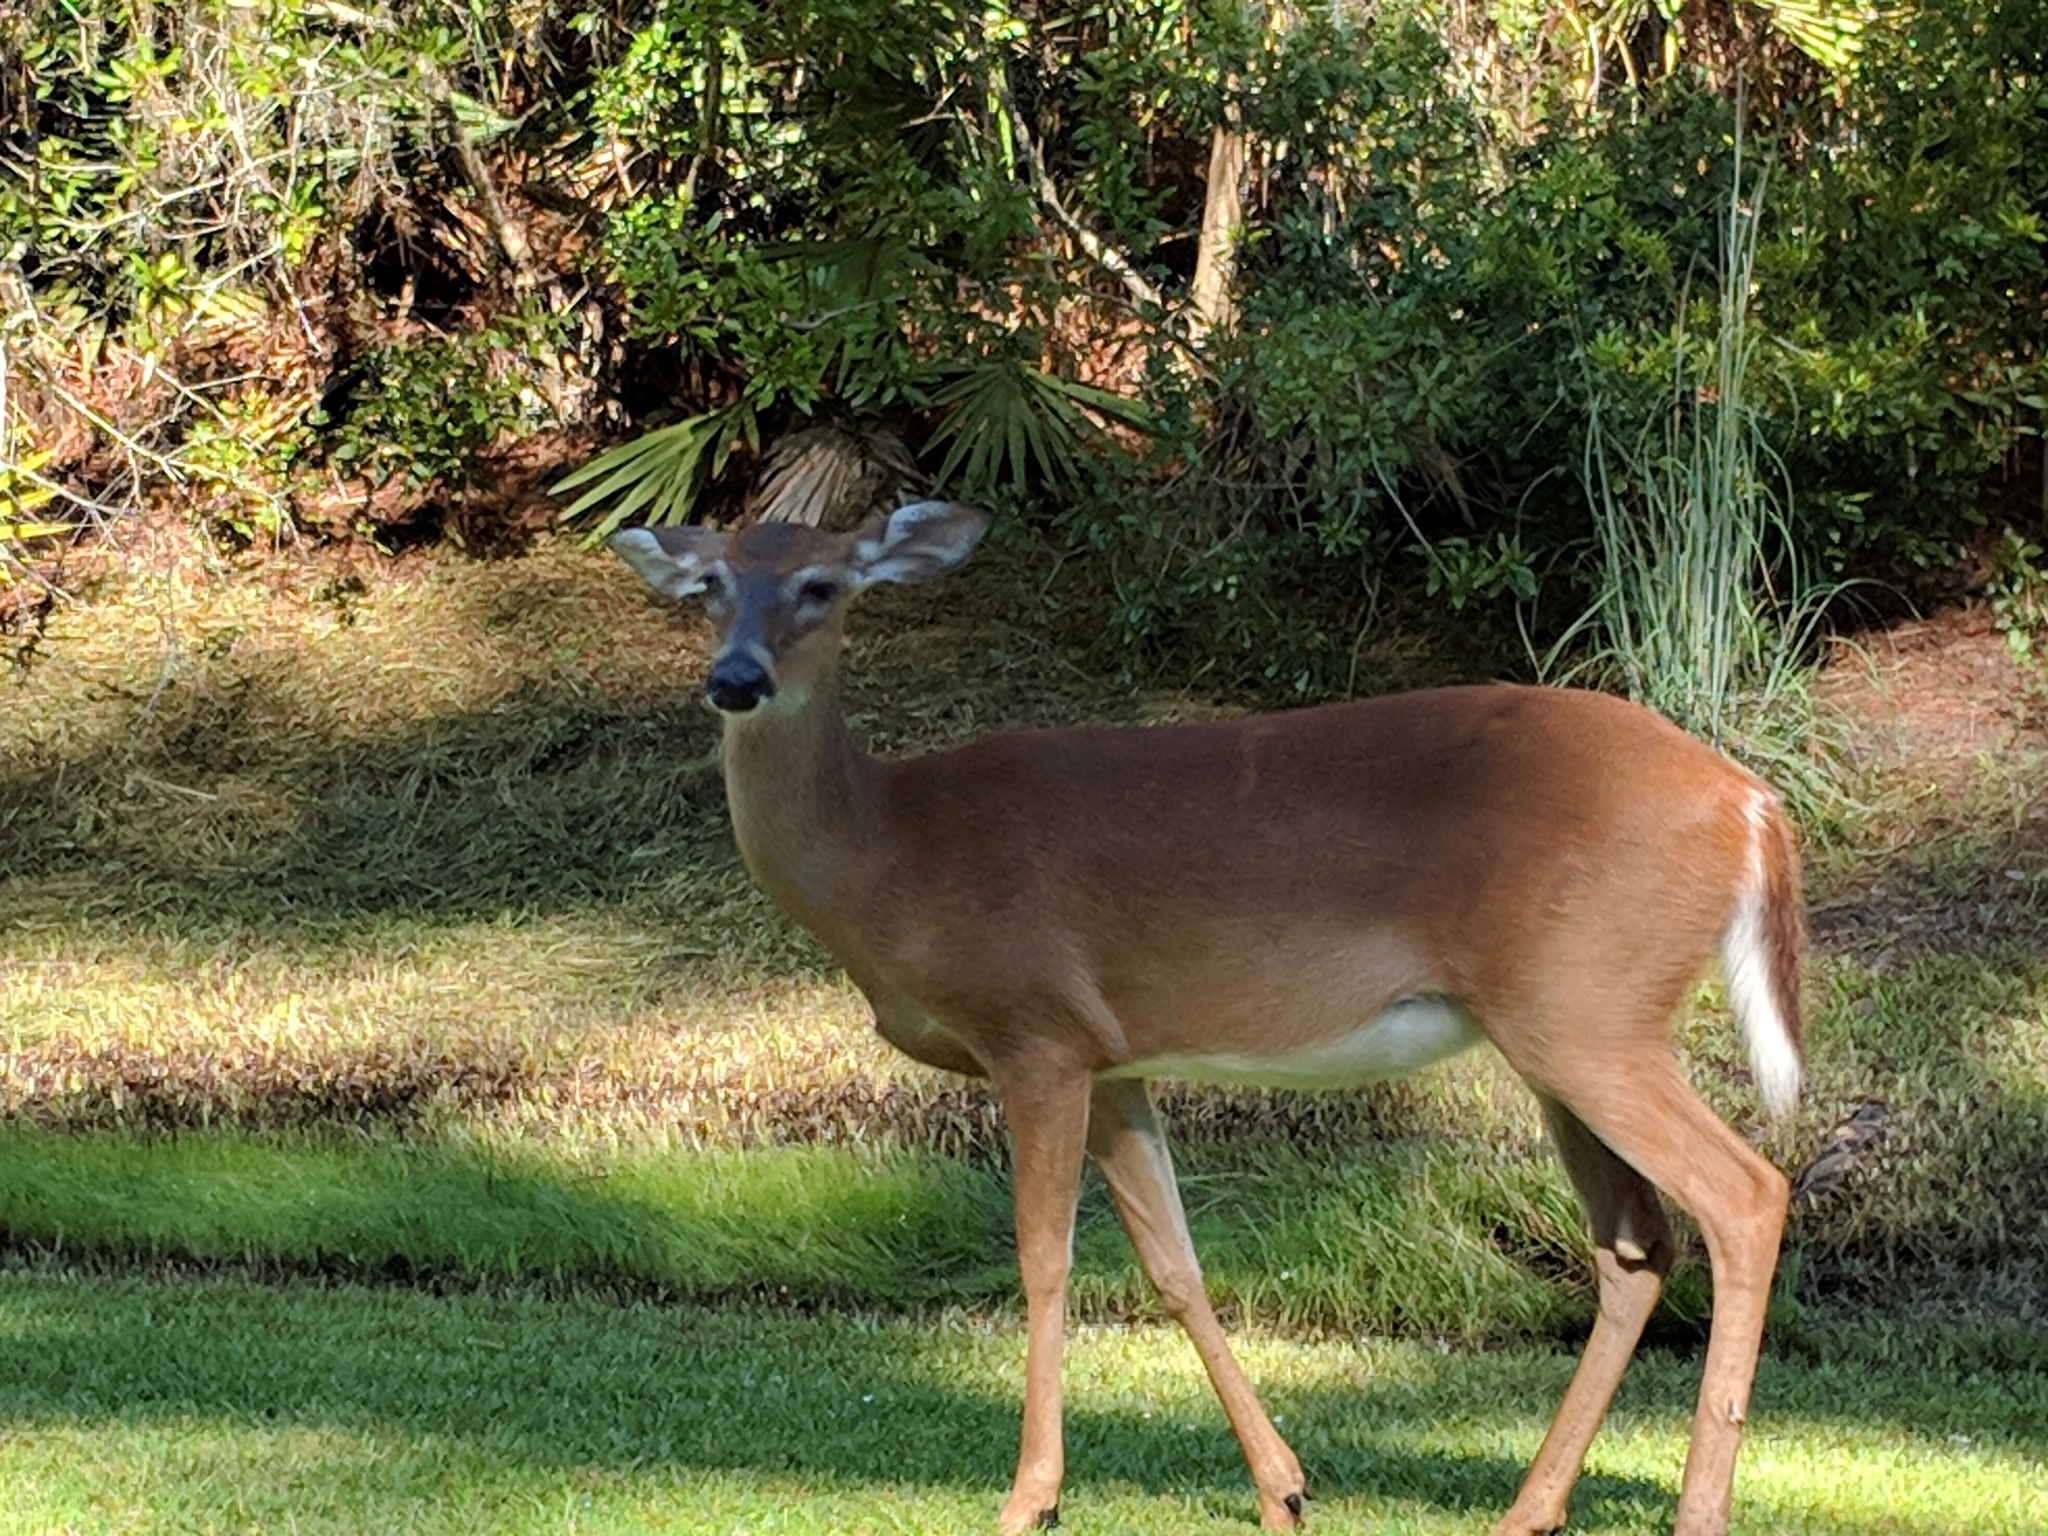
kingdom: Animalia
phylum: Chordata
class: Mammalia
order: Artiodactyla
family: Cervidae
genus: Odocoileus
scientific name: Odocoileus virginianus
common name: White-tailed deer
